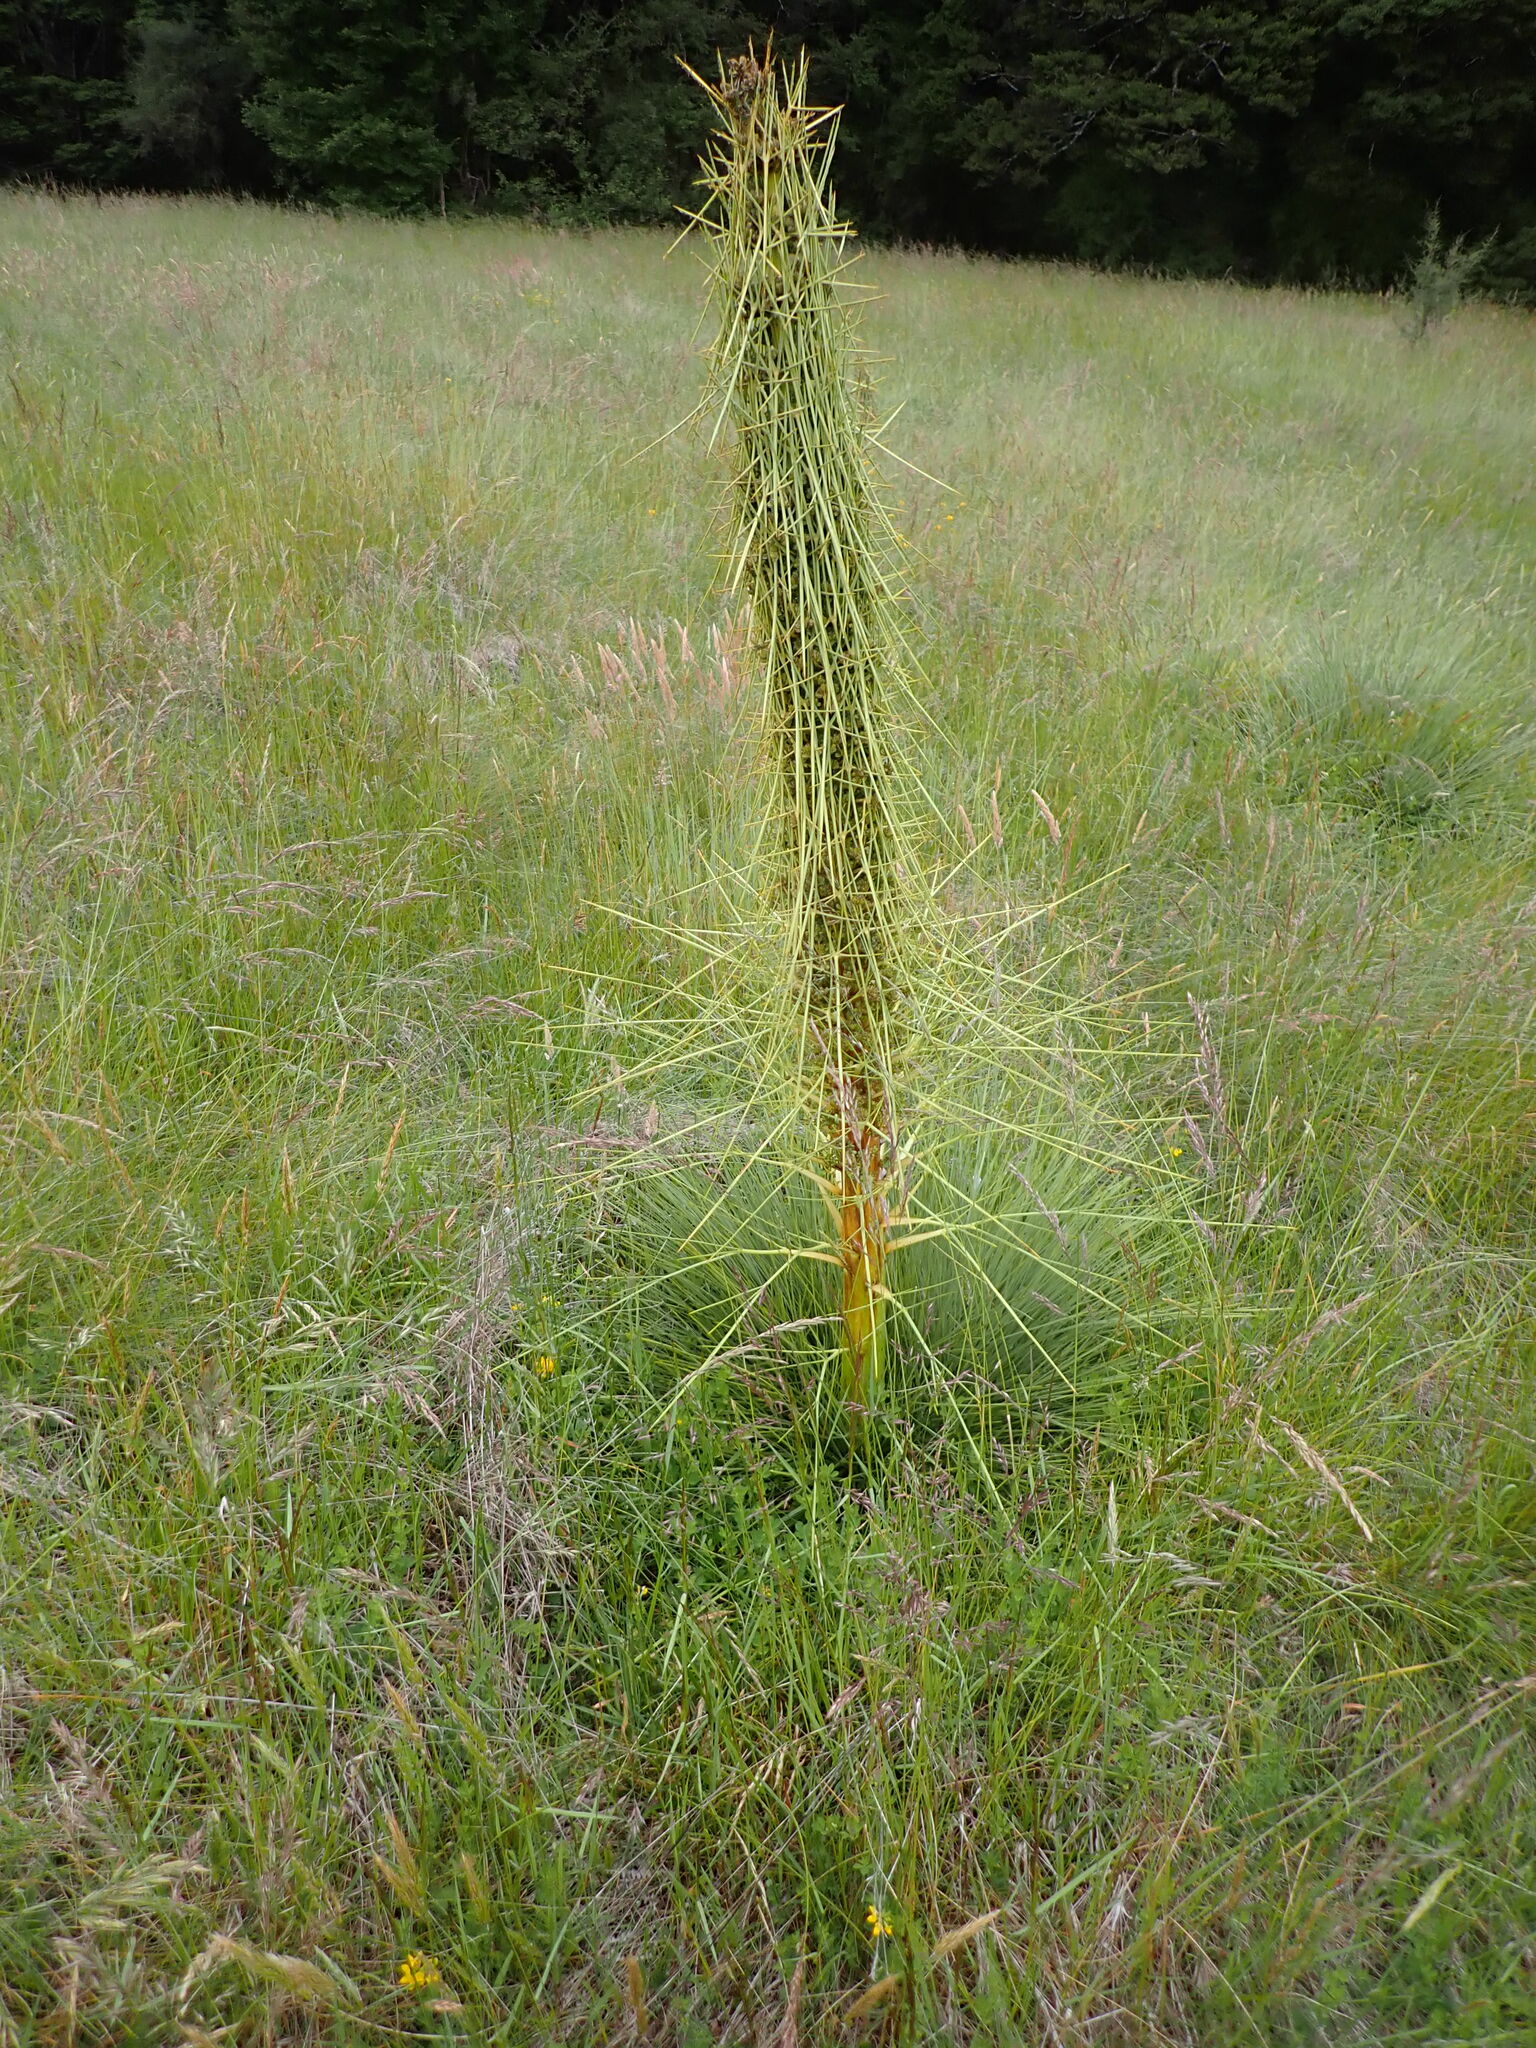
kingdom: Plantae
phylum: Tracheophyta
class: Magnoliopsida
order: Apiales
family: Apiaceae
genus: Aciphylla
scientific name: Aciphylla subflabellata
